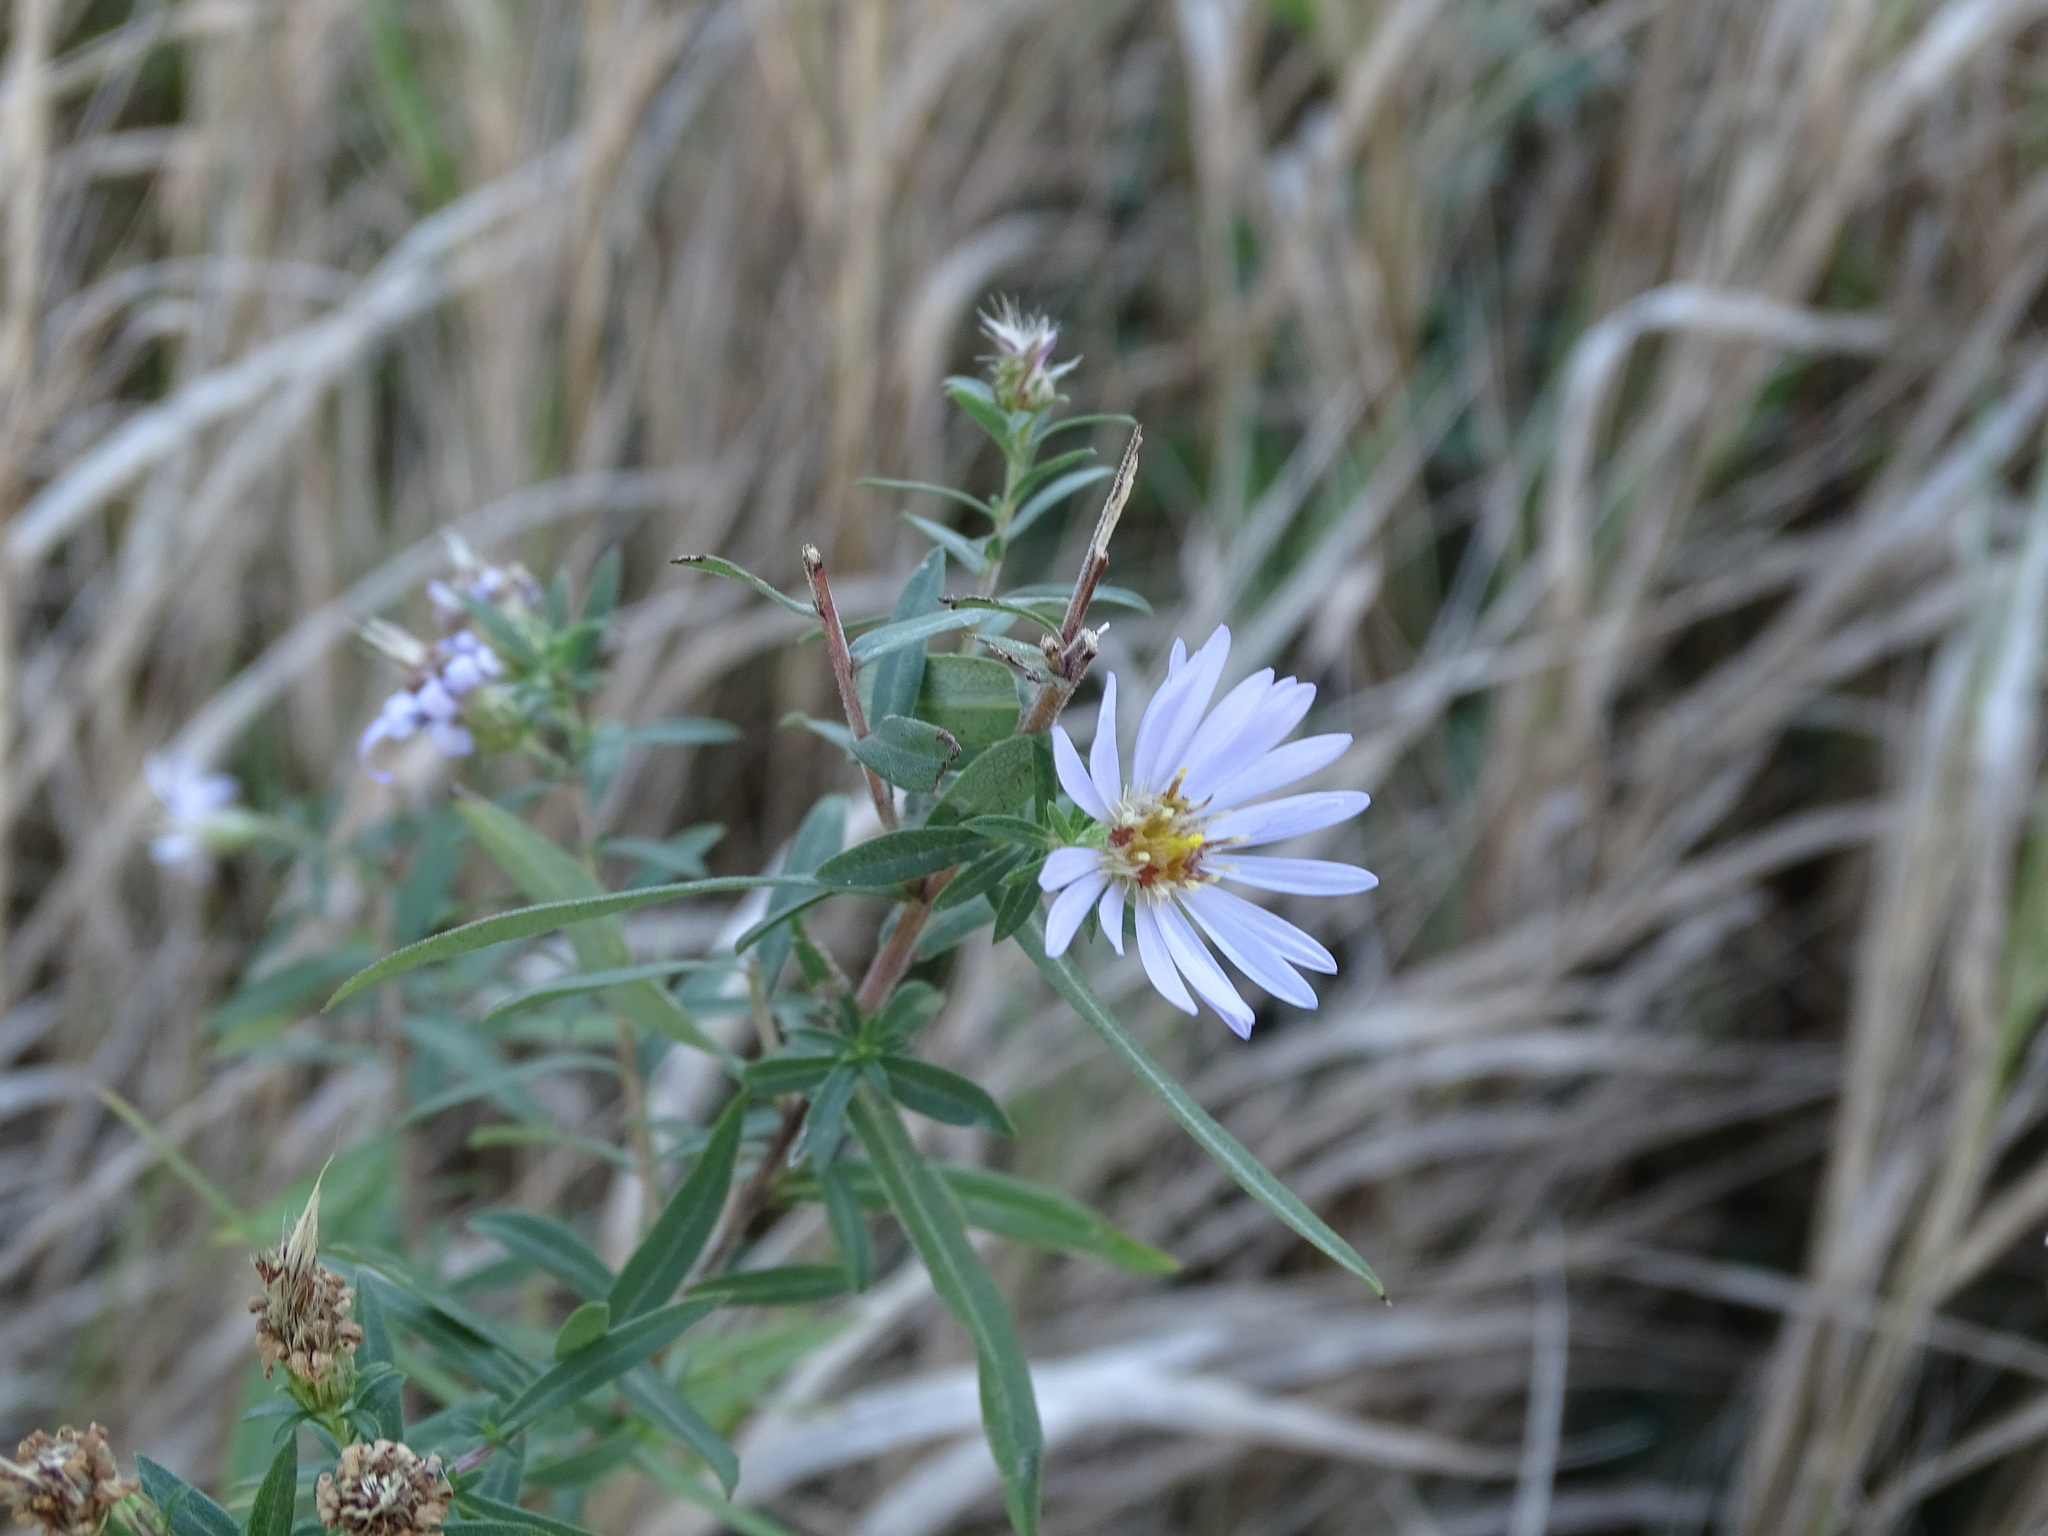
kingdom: Plantae
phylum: Tracheophyta
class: Magnoliopsida
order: Asterales
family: Asteraceae
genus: Symphyotrichum
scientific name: Symphyotrichum praealtum
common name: Willow aster
